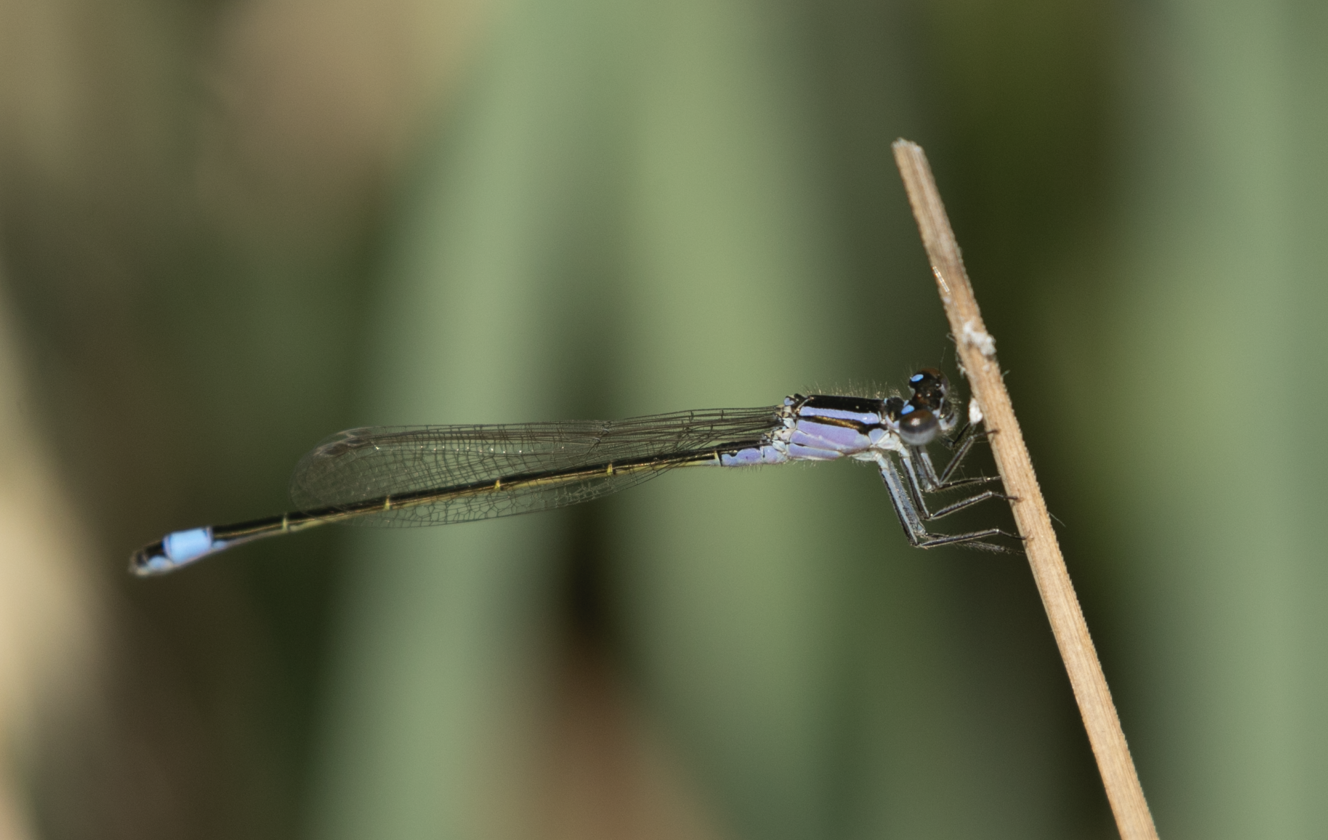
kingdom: Animalia
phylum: Arthropoda
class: Insecta
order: Odonata
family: Coenagrionidae
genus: Ischnura
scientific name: Ischnura elegans
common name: Blue-tailed damselfly
